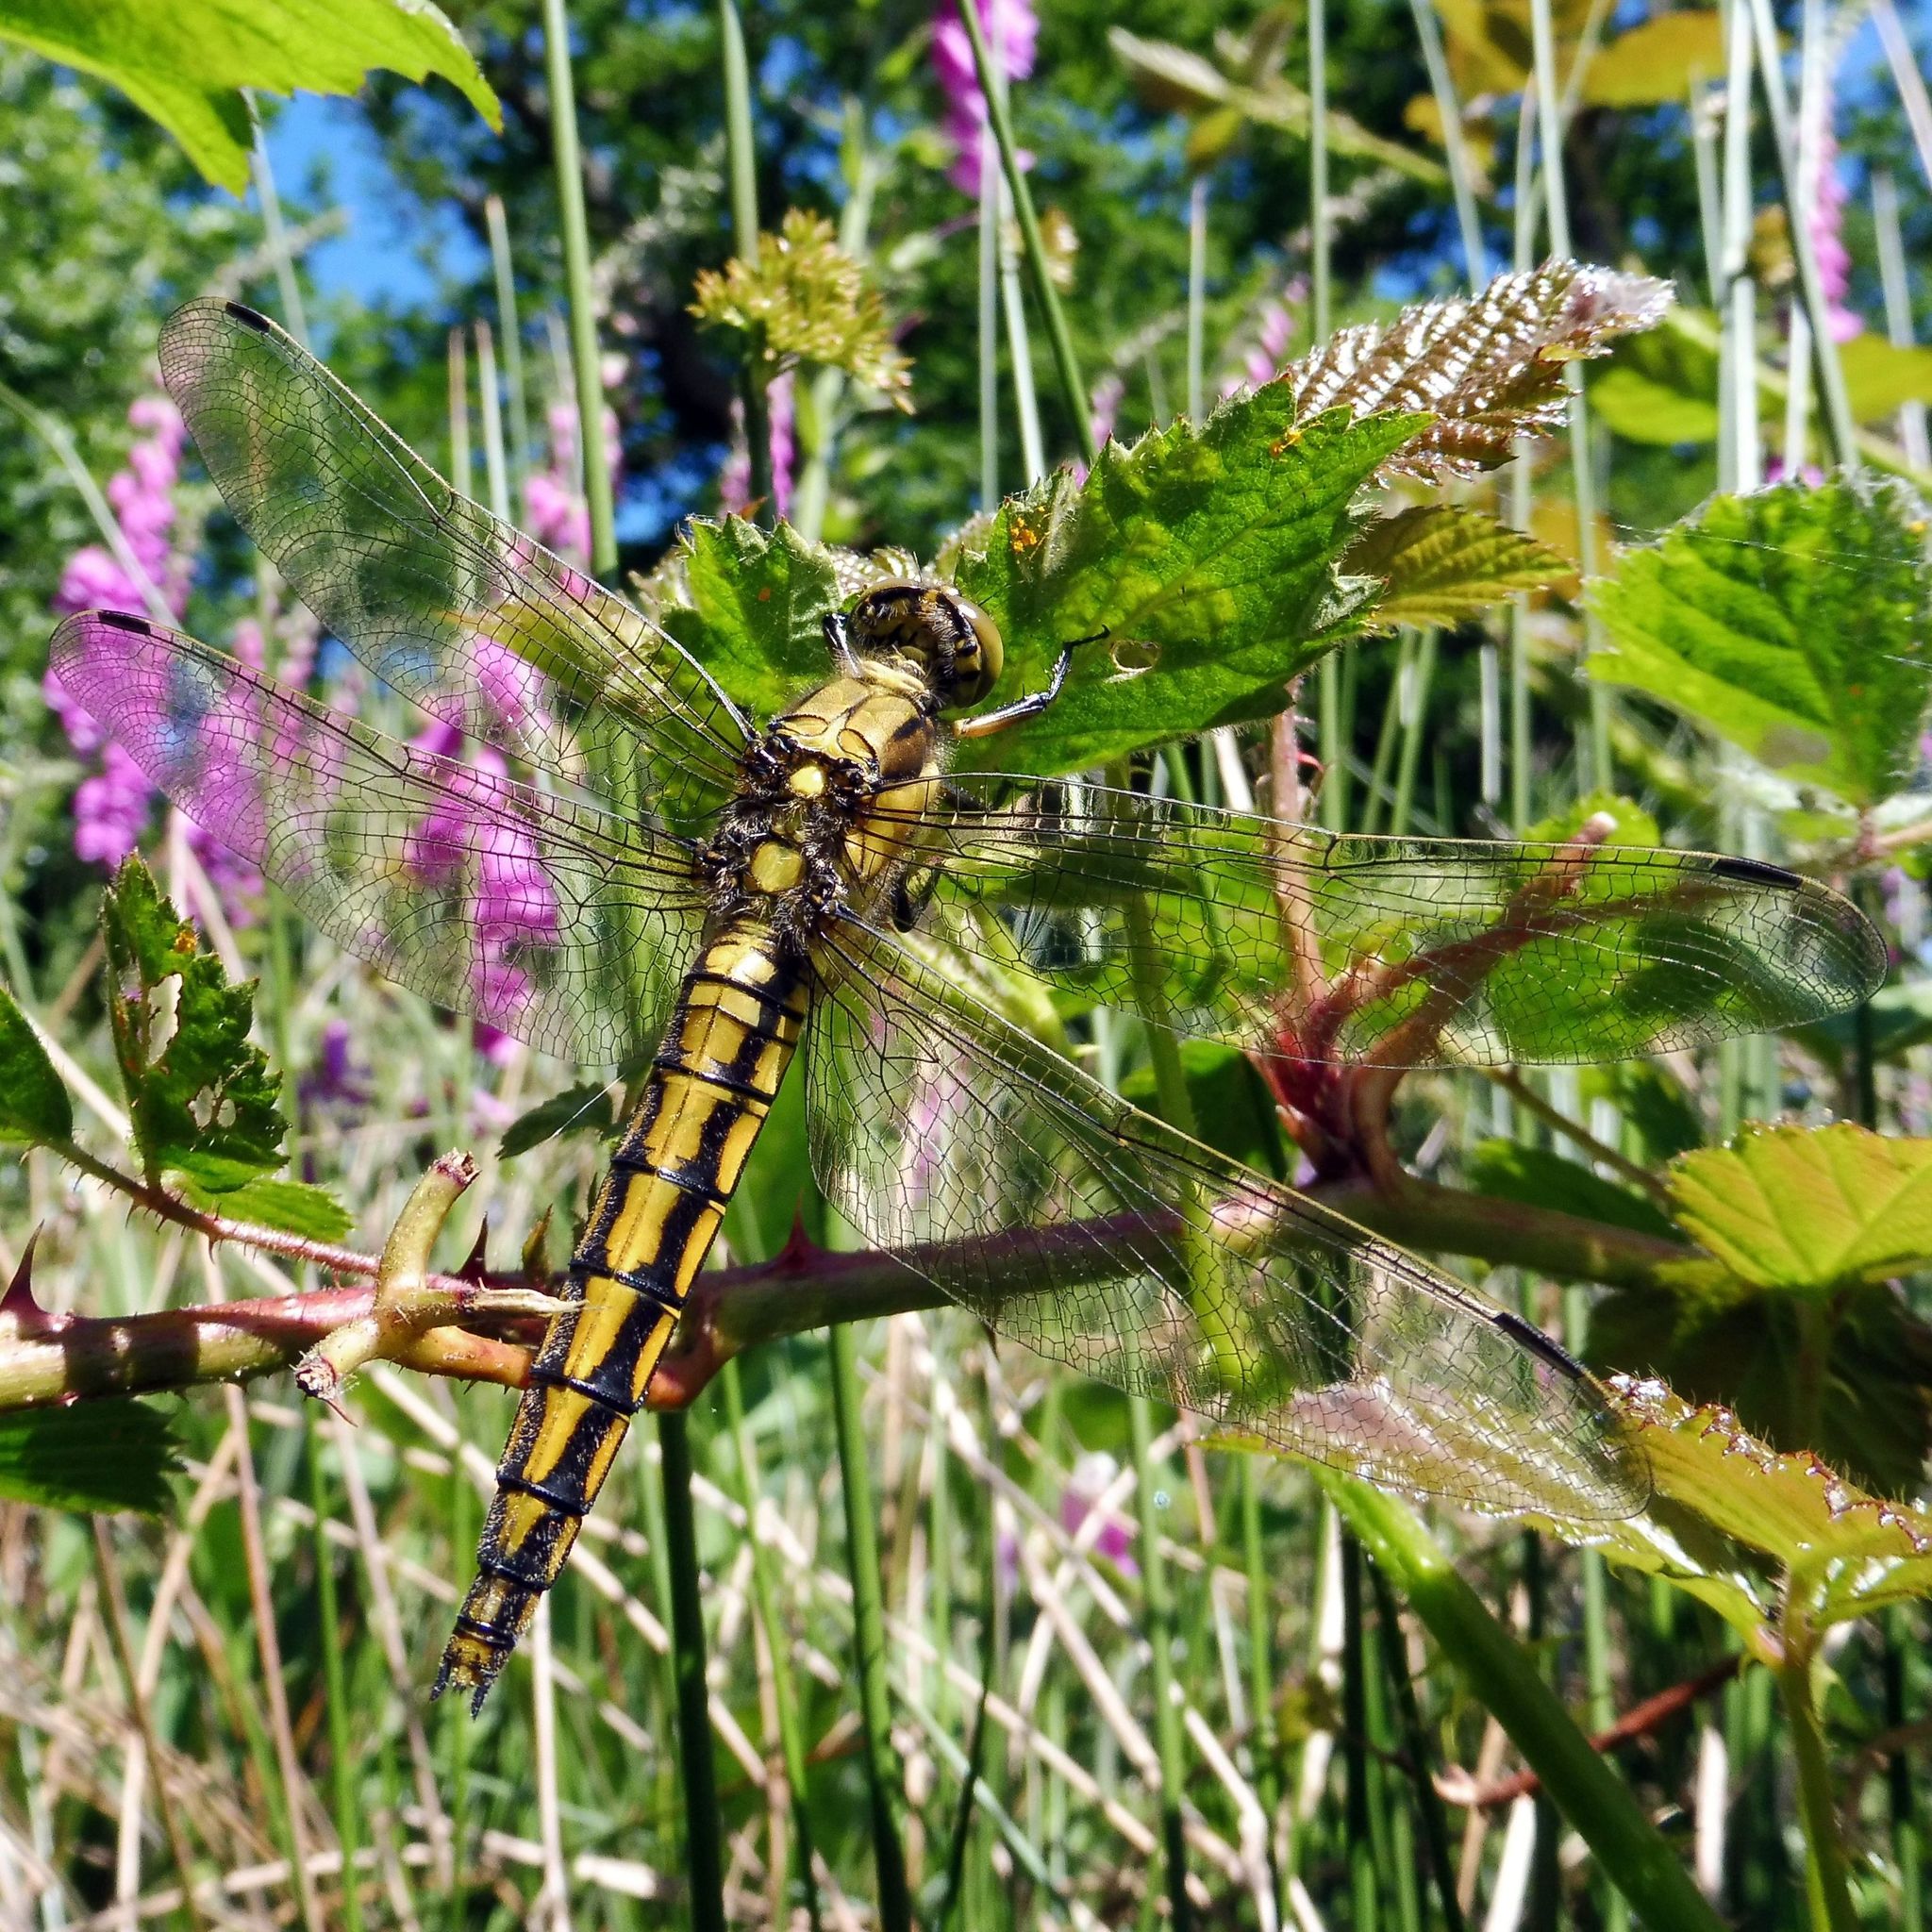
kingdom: Animalia
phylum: Arthropoda
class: Insecta
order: Odonata
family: Libellulidae
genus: Orthetrum
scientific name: Orthetrum cancellatum
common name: Black-tailed skimmer
